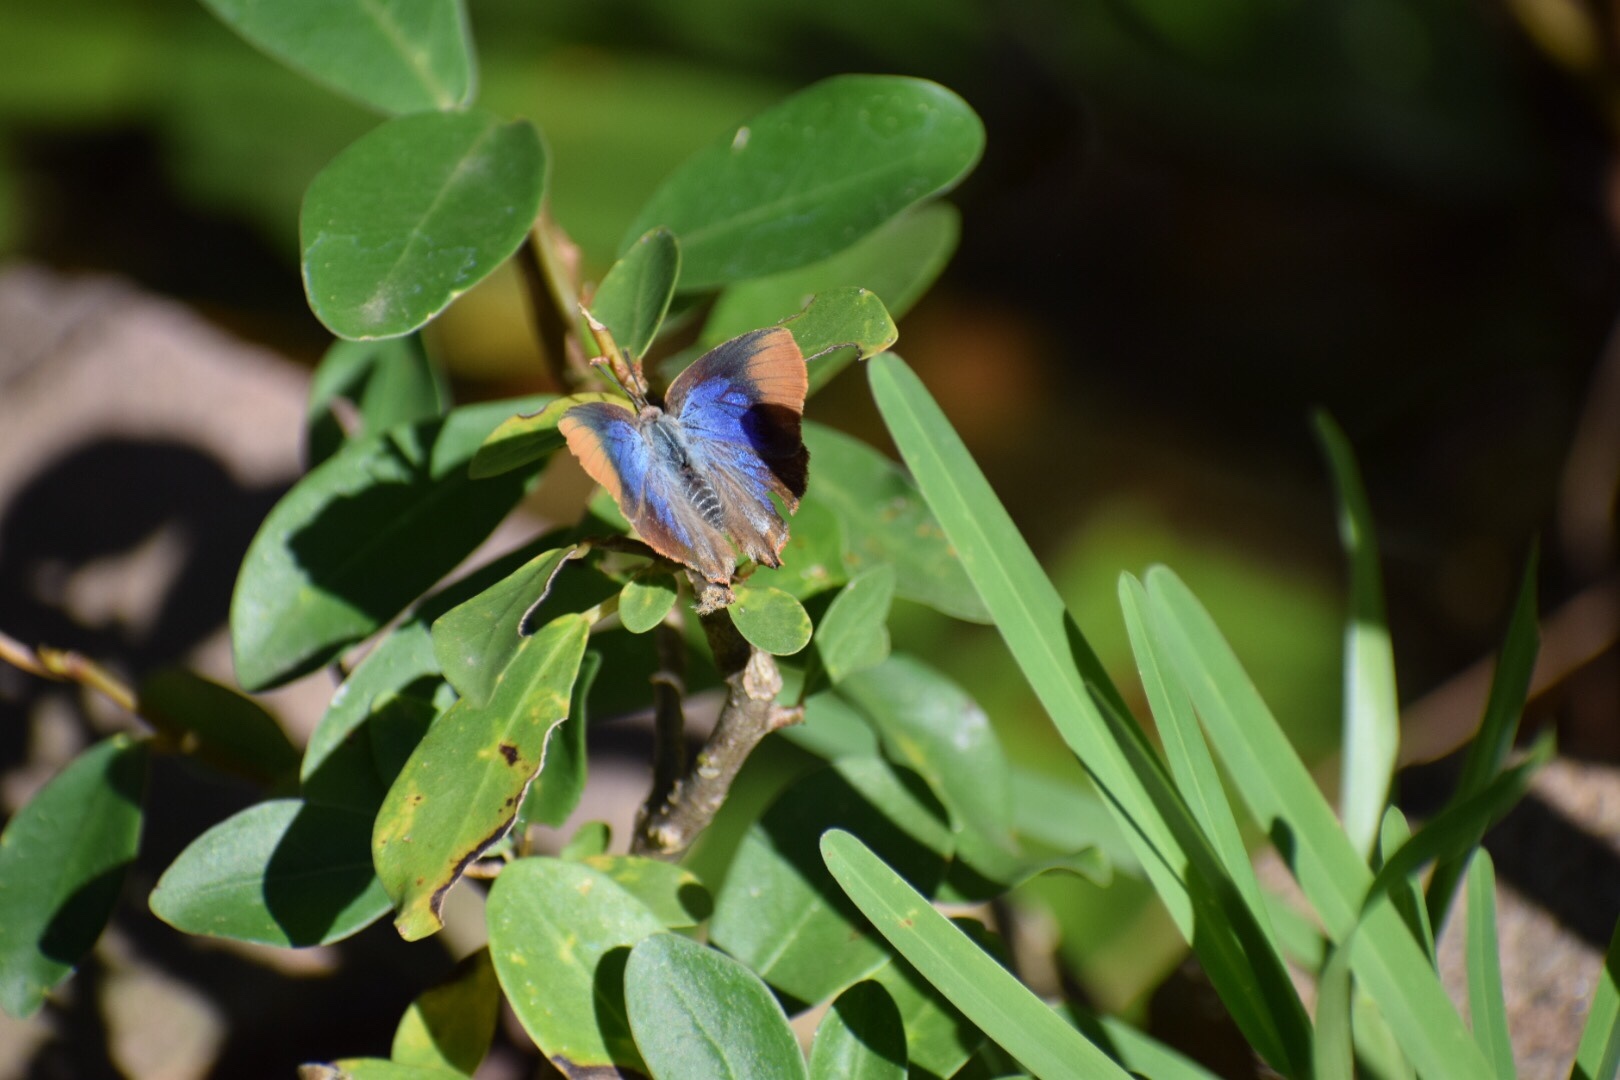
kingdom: Animalia
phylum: Arthropoda
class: Insecta
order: Lepidoptera
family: Lycaenidae
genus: Myrina
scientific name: Myrina silenus
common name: Amber fig-tree blue
